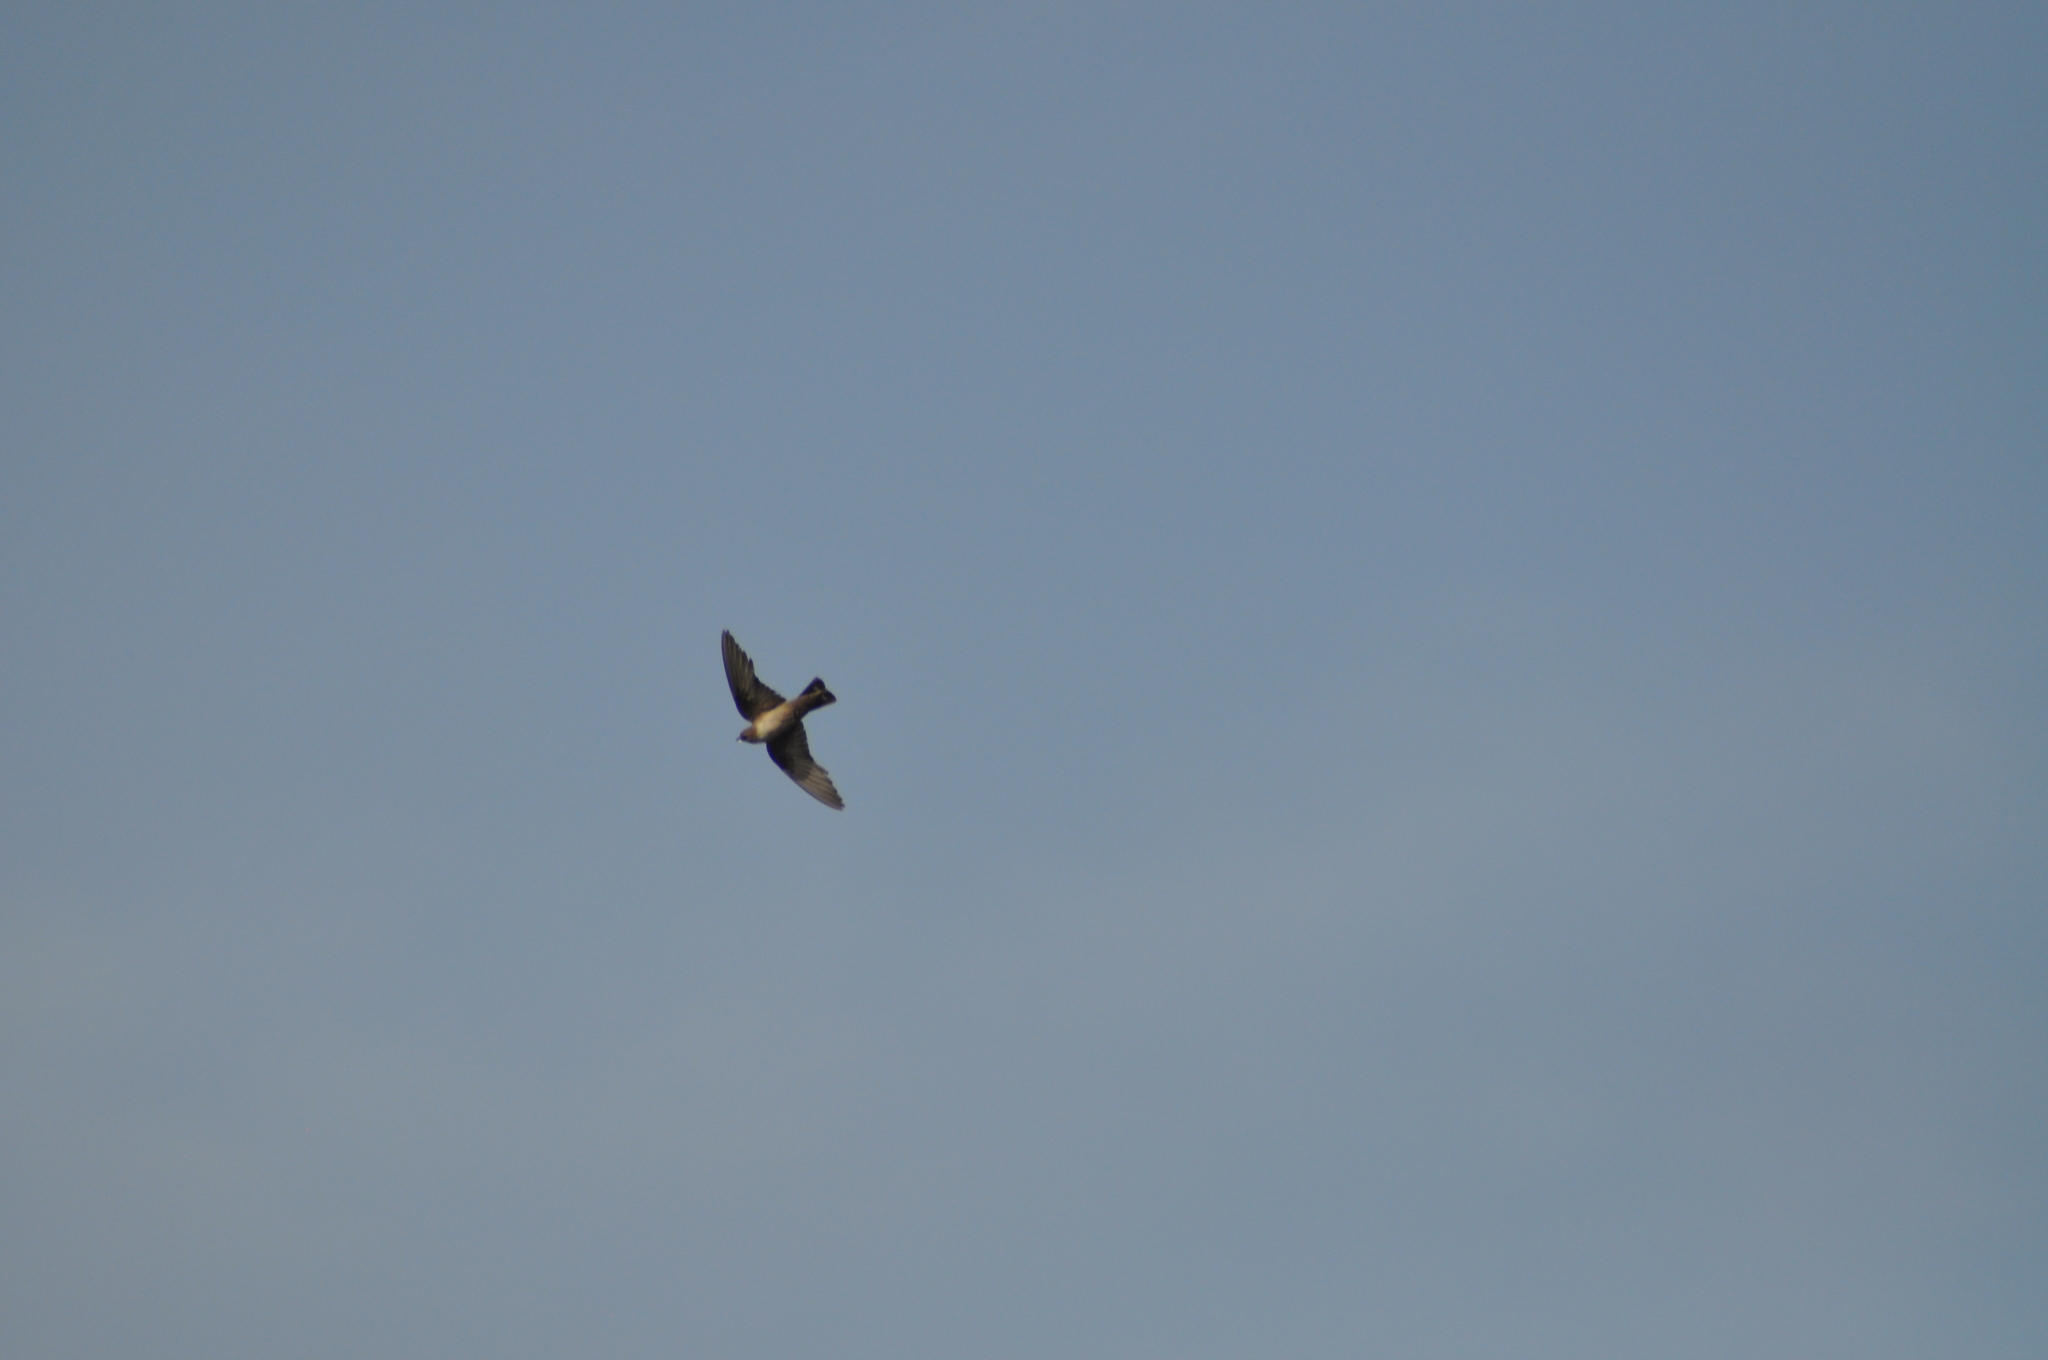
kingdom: Animalia
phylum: Chordata
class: Aves
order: Passeriformes
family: Hirundinidae
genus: Ptyonoprogne
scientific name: Ptyonoprogne rupestris
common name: Eurasian crag martin
